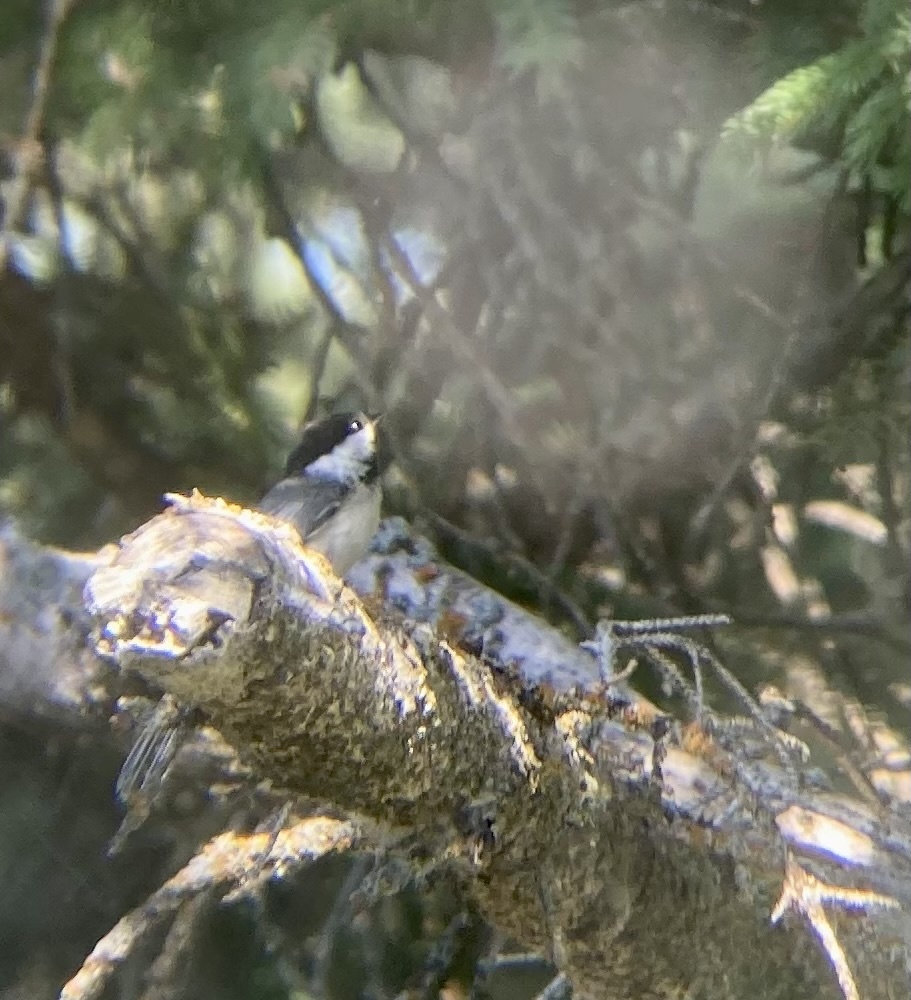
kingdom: Animalia
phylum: Chordata
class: Aves
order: Passeriformes
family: Paridae
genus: Poecile
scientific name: Poecile atricapillus
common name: Black-capped chickadee
